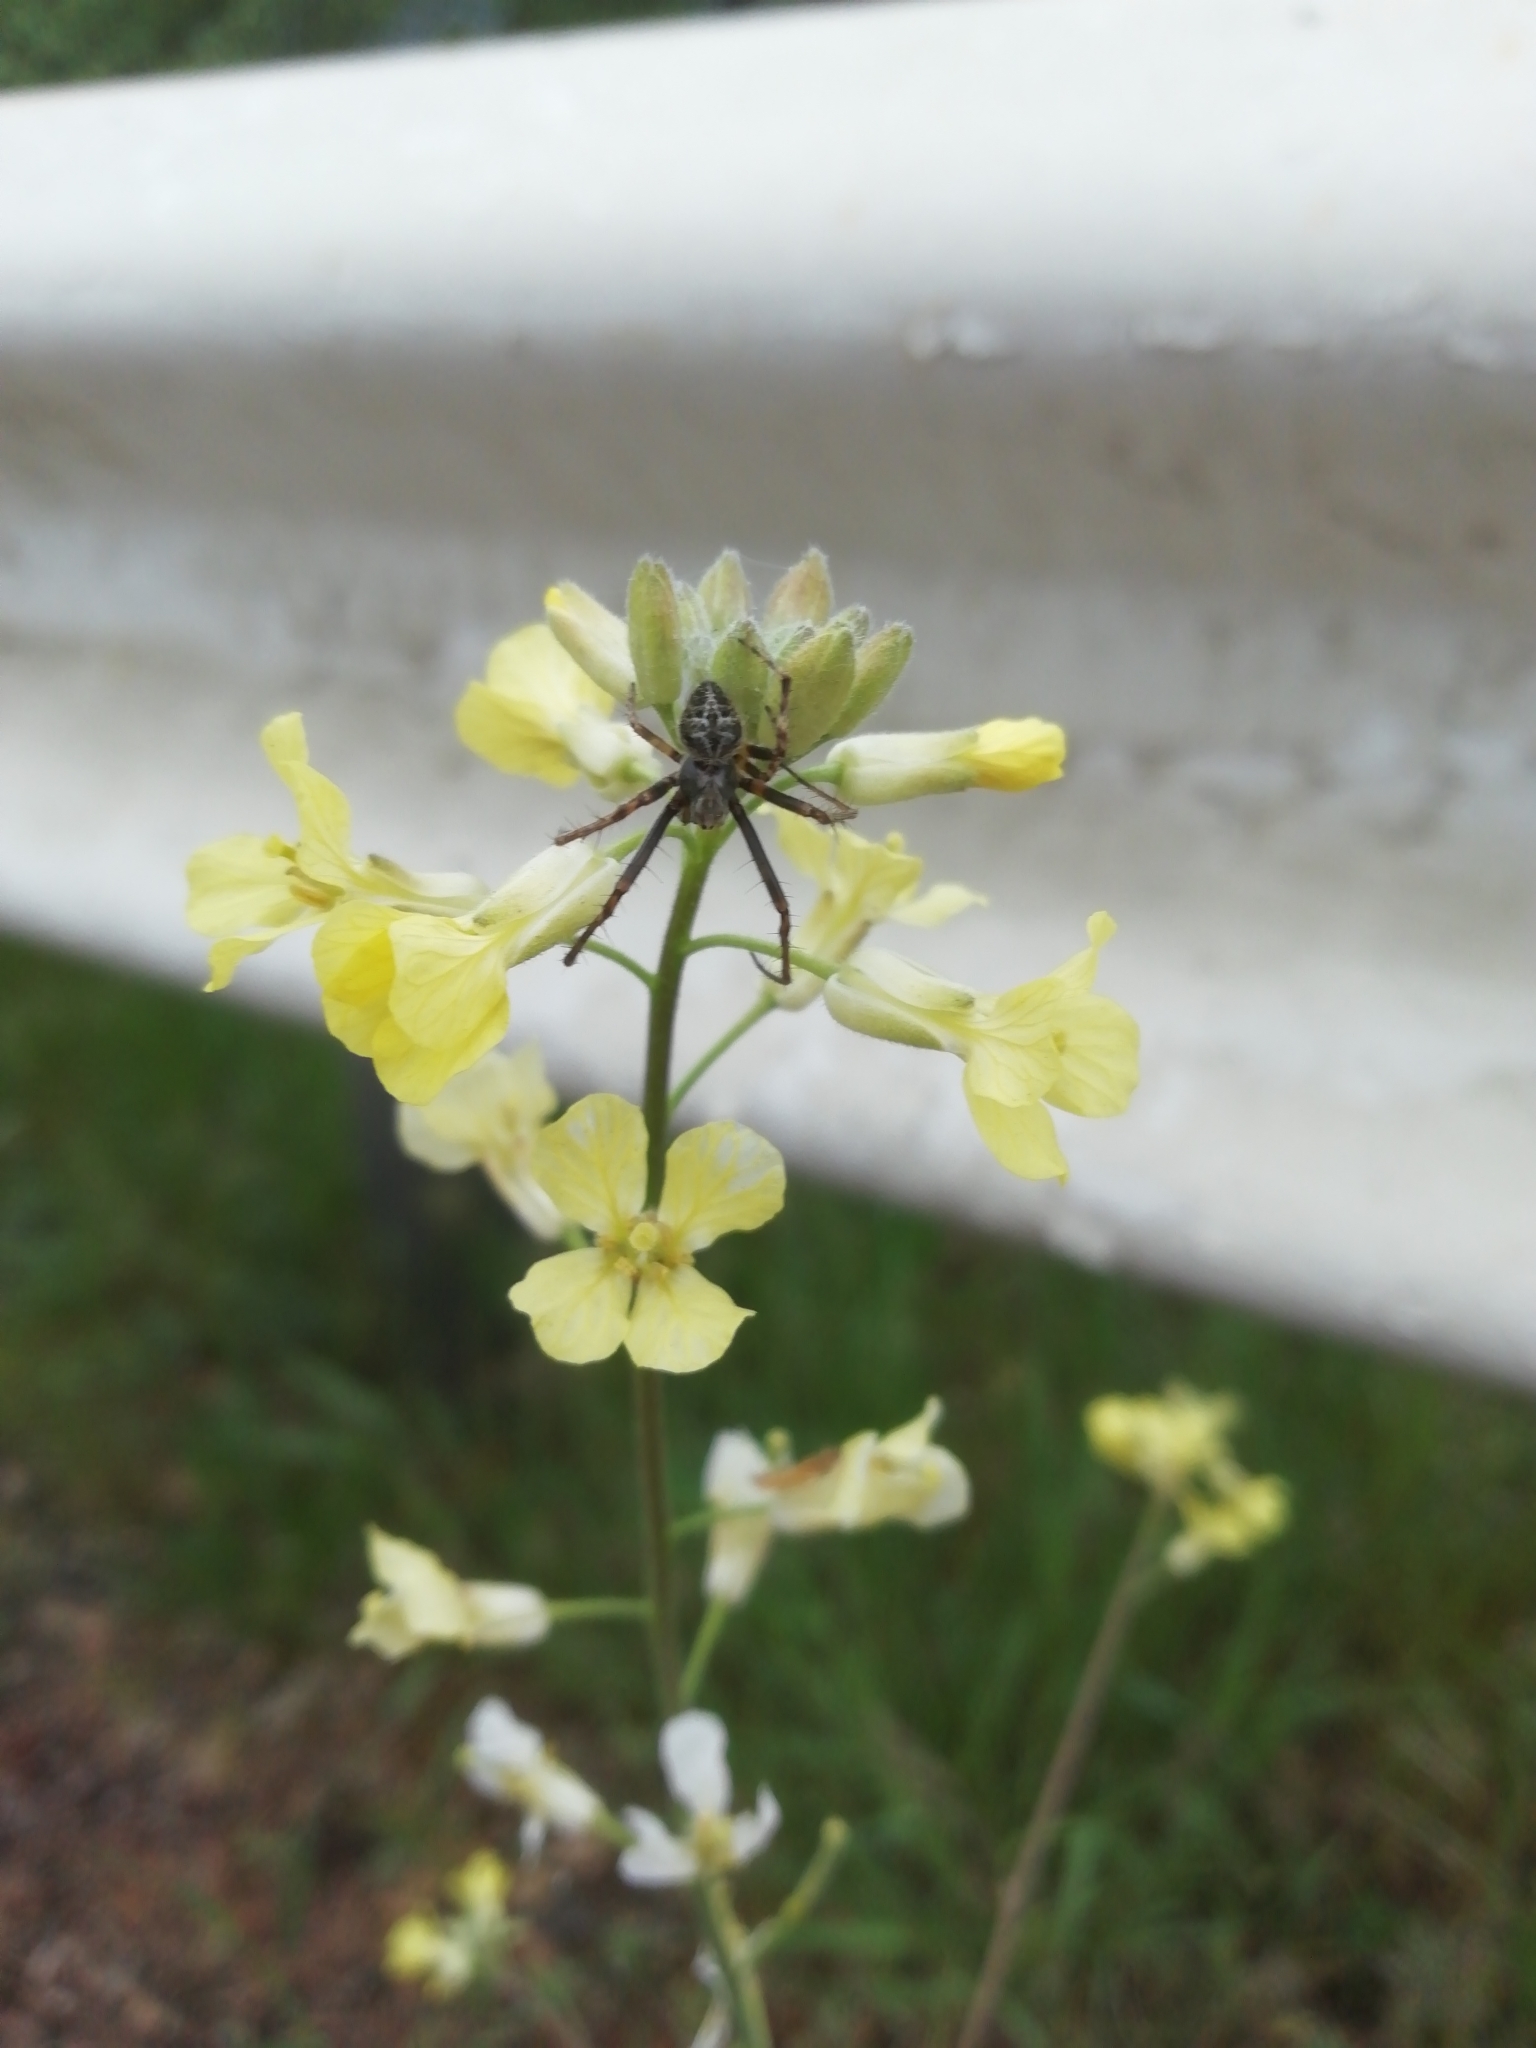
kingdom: Animalia
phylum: Arthropoda
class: Arachnida
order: Araneae
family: Araneidae
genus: Agalenatea
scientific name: Agalenatea redii
